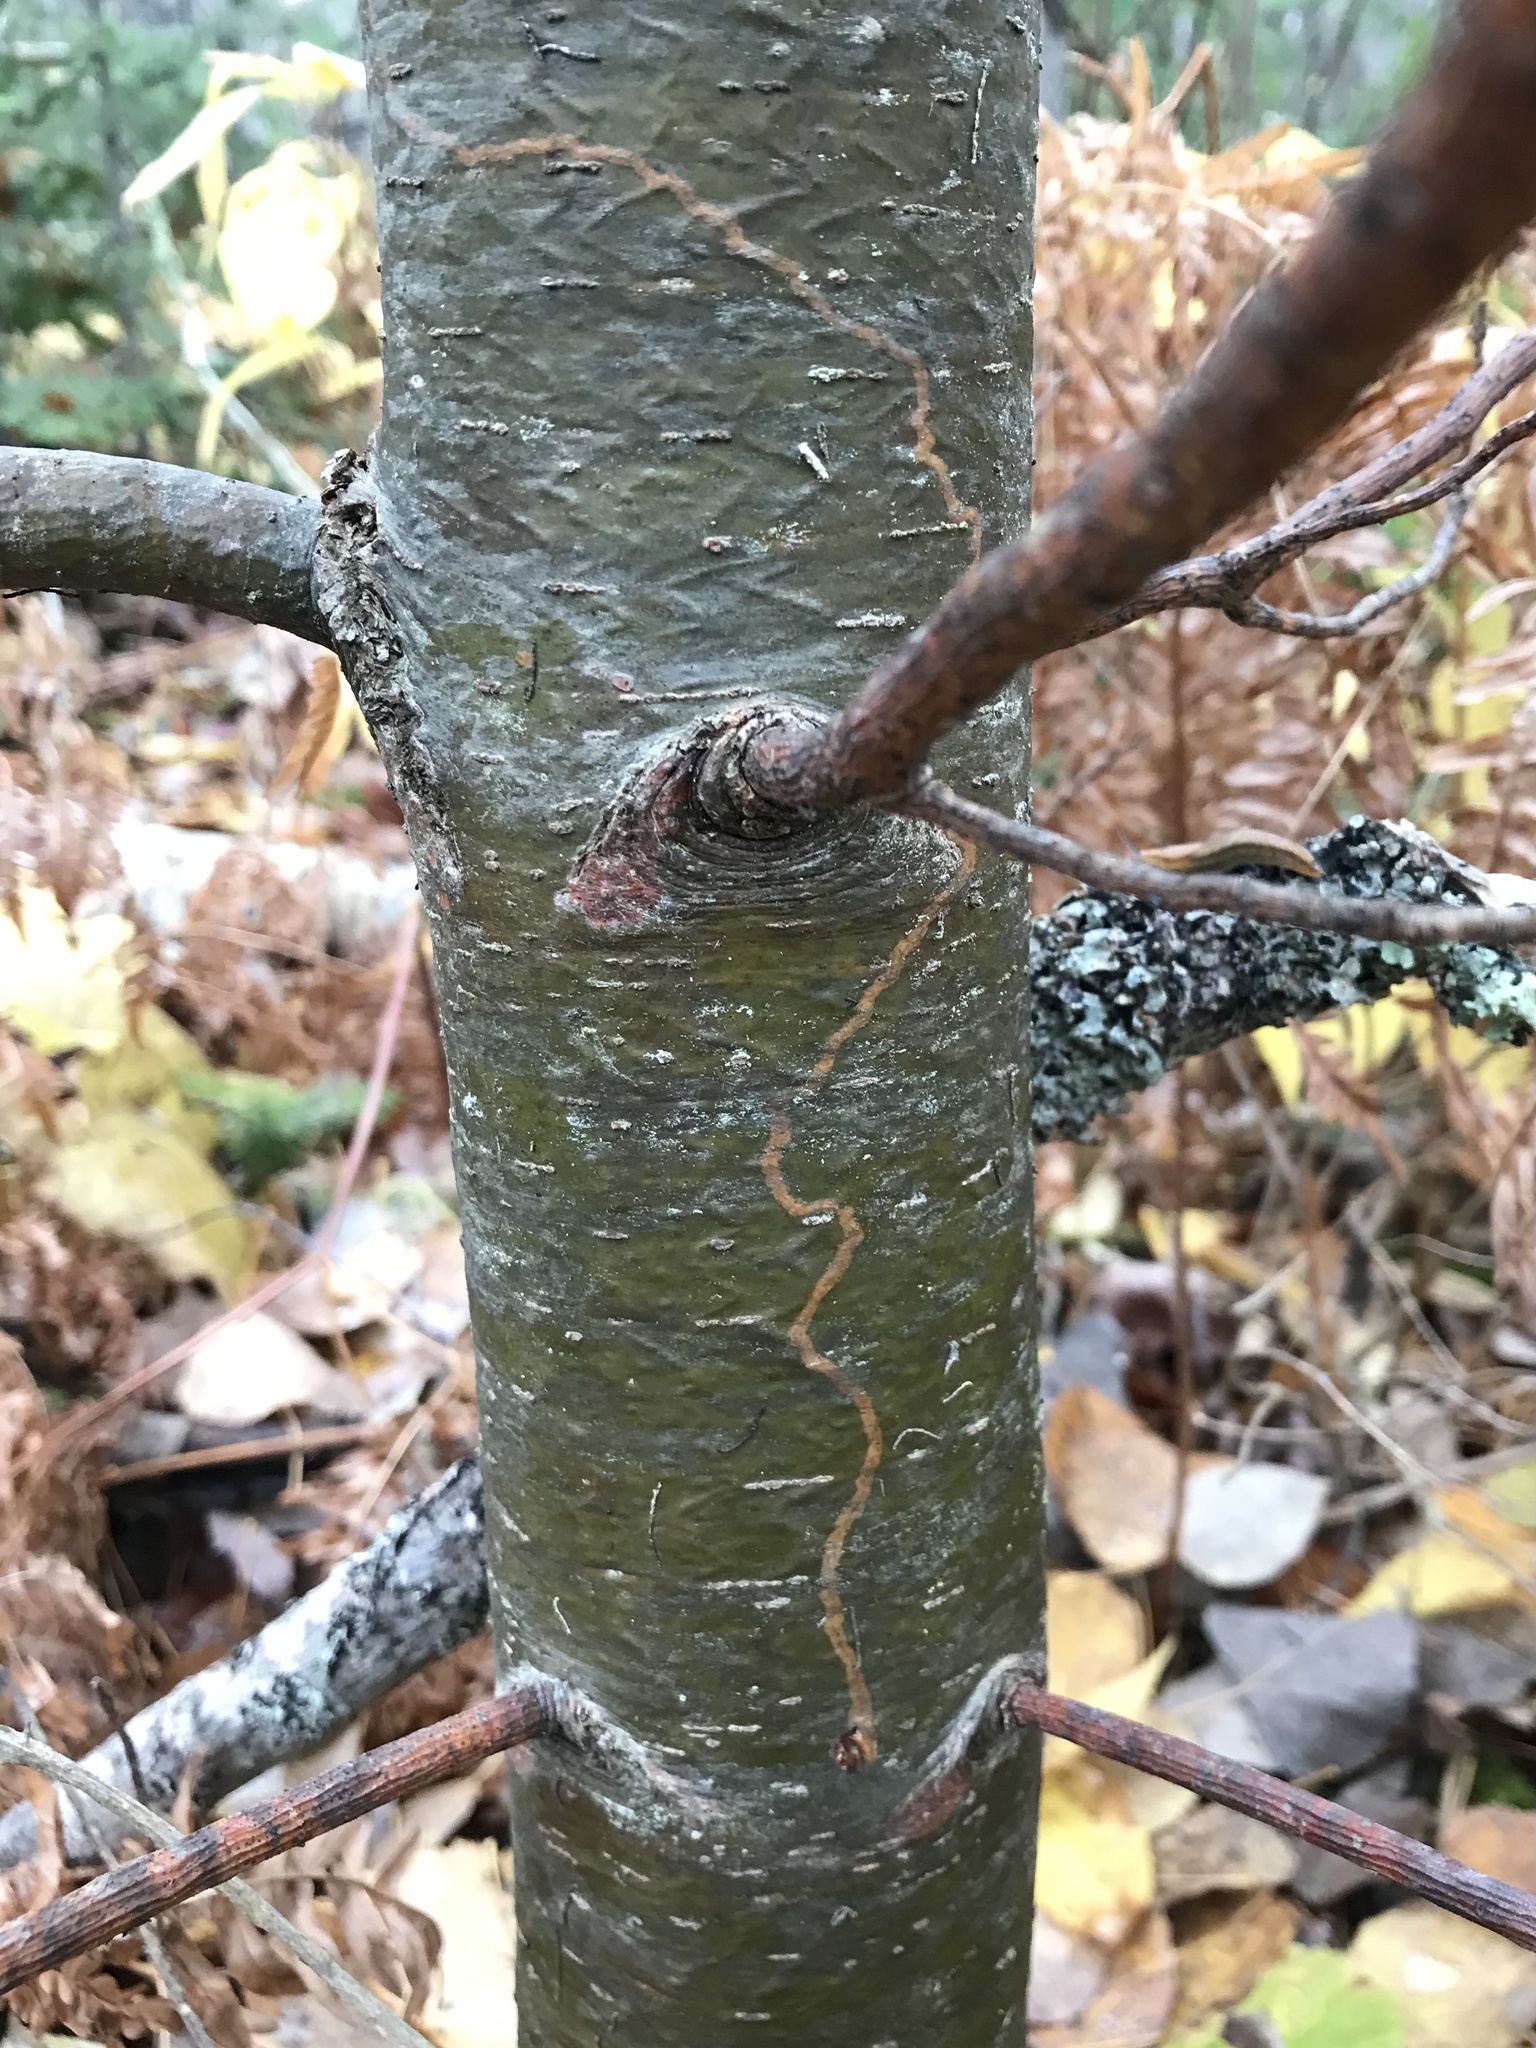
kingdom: Animalia
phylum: Arthropoda
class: Insecta
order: Lepidoptera
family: Gracillariidae
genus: Marmara
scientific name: Marmara fasciella
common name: White pine barkminer moth
